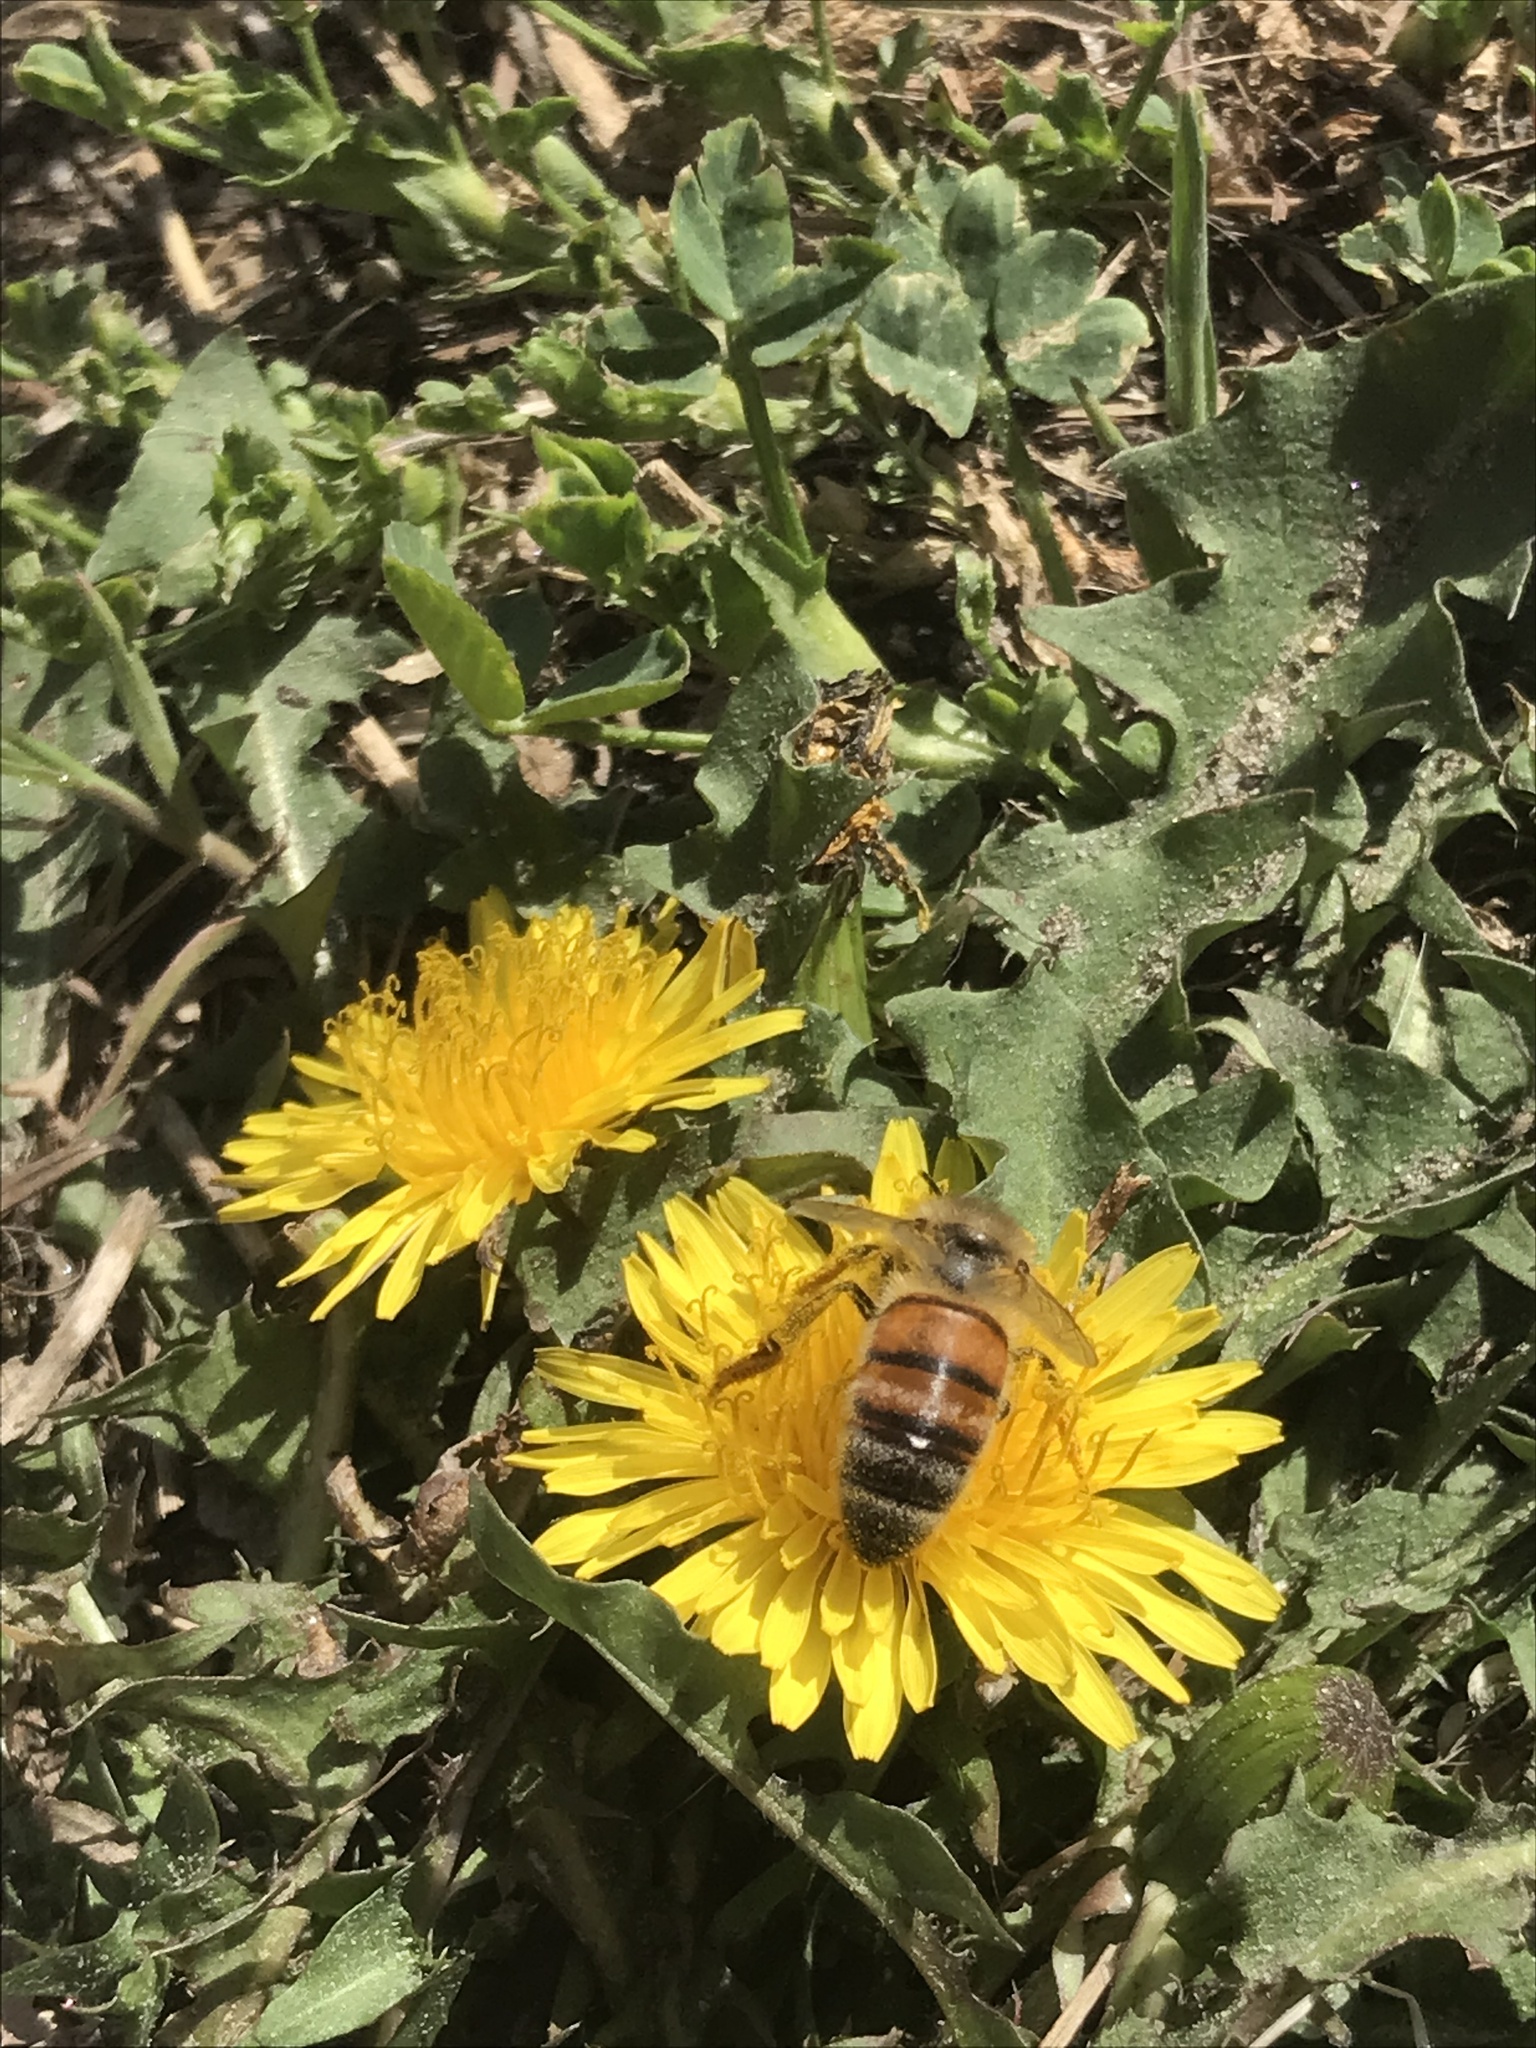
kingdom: Animalia
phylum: Arthropoda
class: Insecta
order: Hymenoptera
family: Apidae
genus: Apis
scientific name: Apis mellifera
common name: Honey bee
